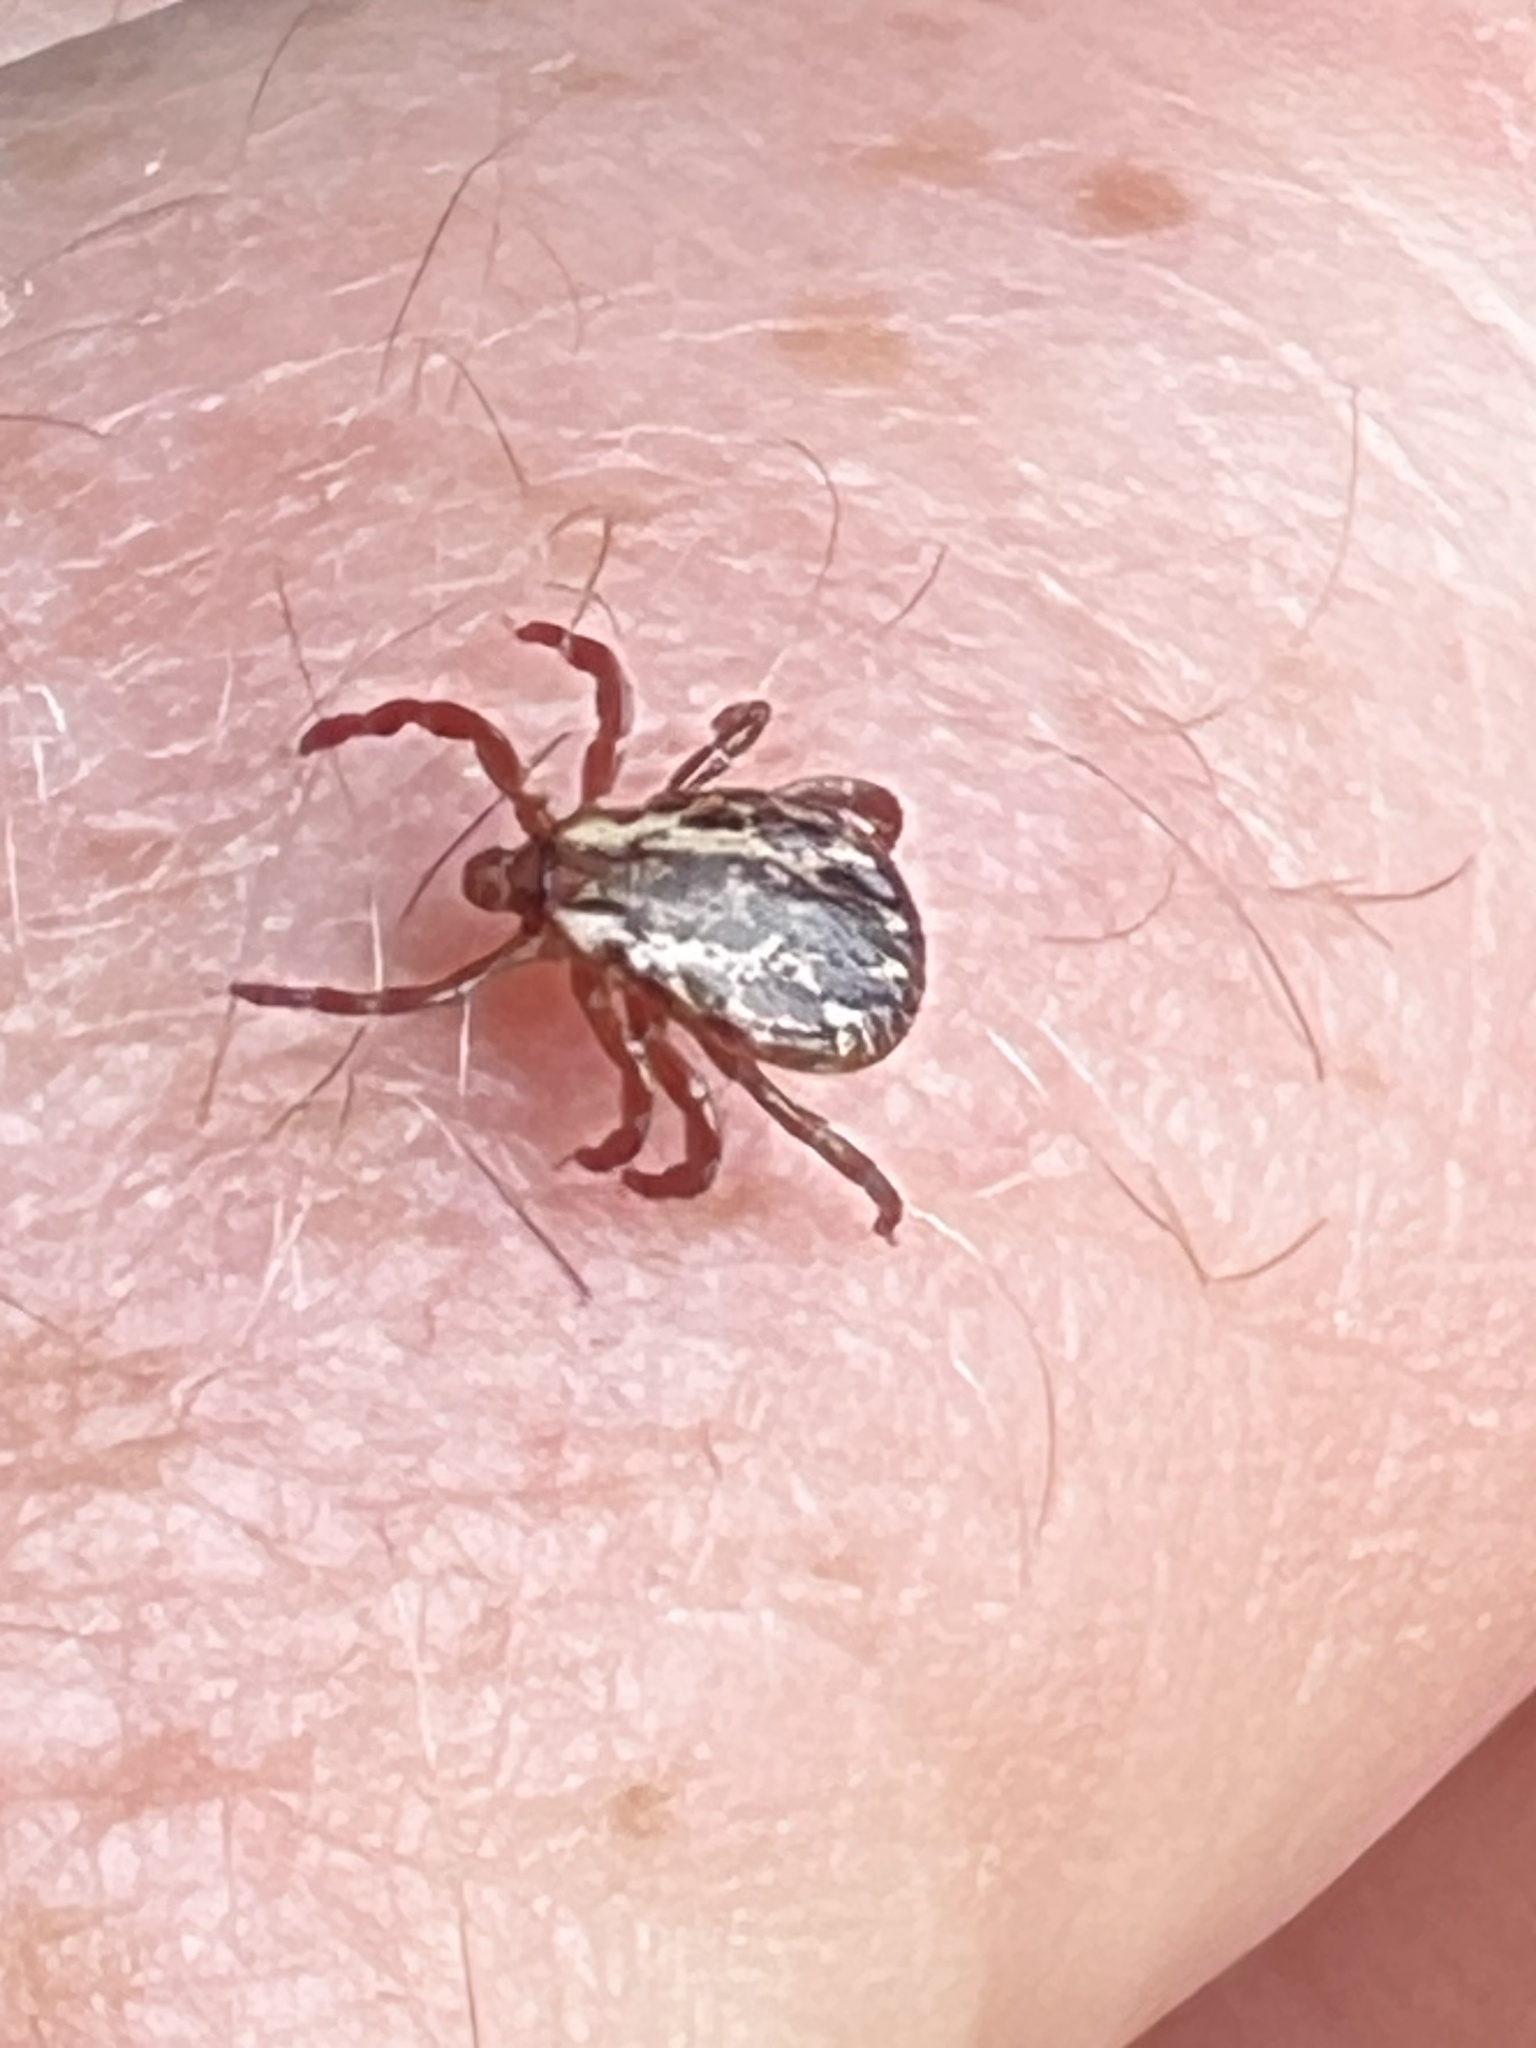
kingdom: Animalia
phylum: Arthropoda
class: Arachnida
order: Ixodida
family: Ixodidae
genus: Dermacentor
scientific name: Dermacentor variabilis
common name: American dog tick
